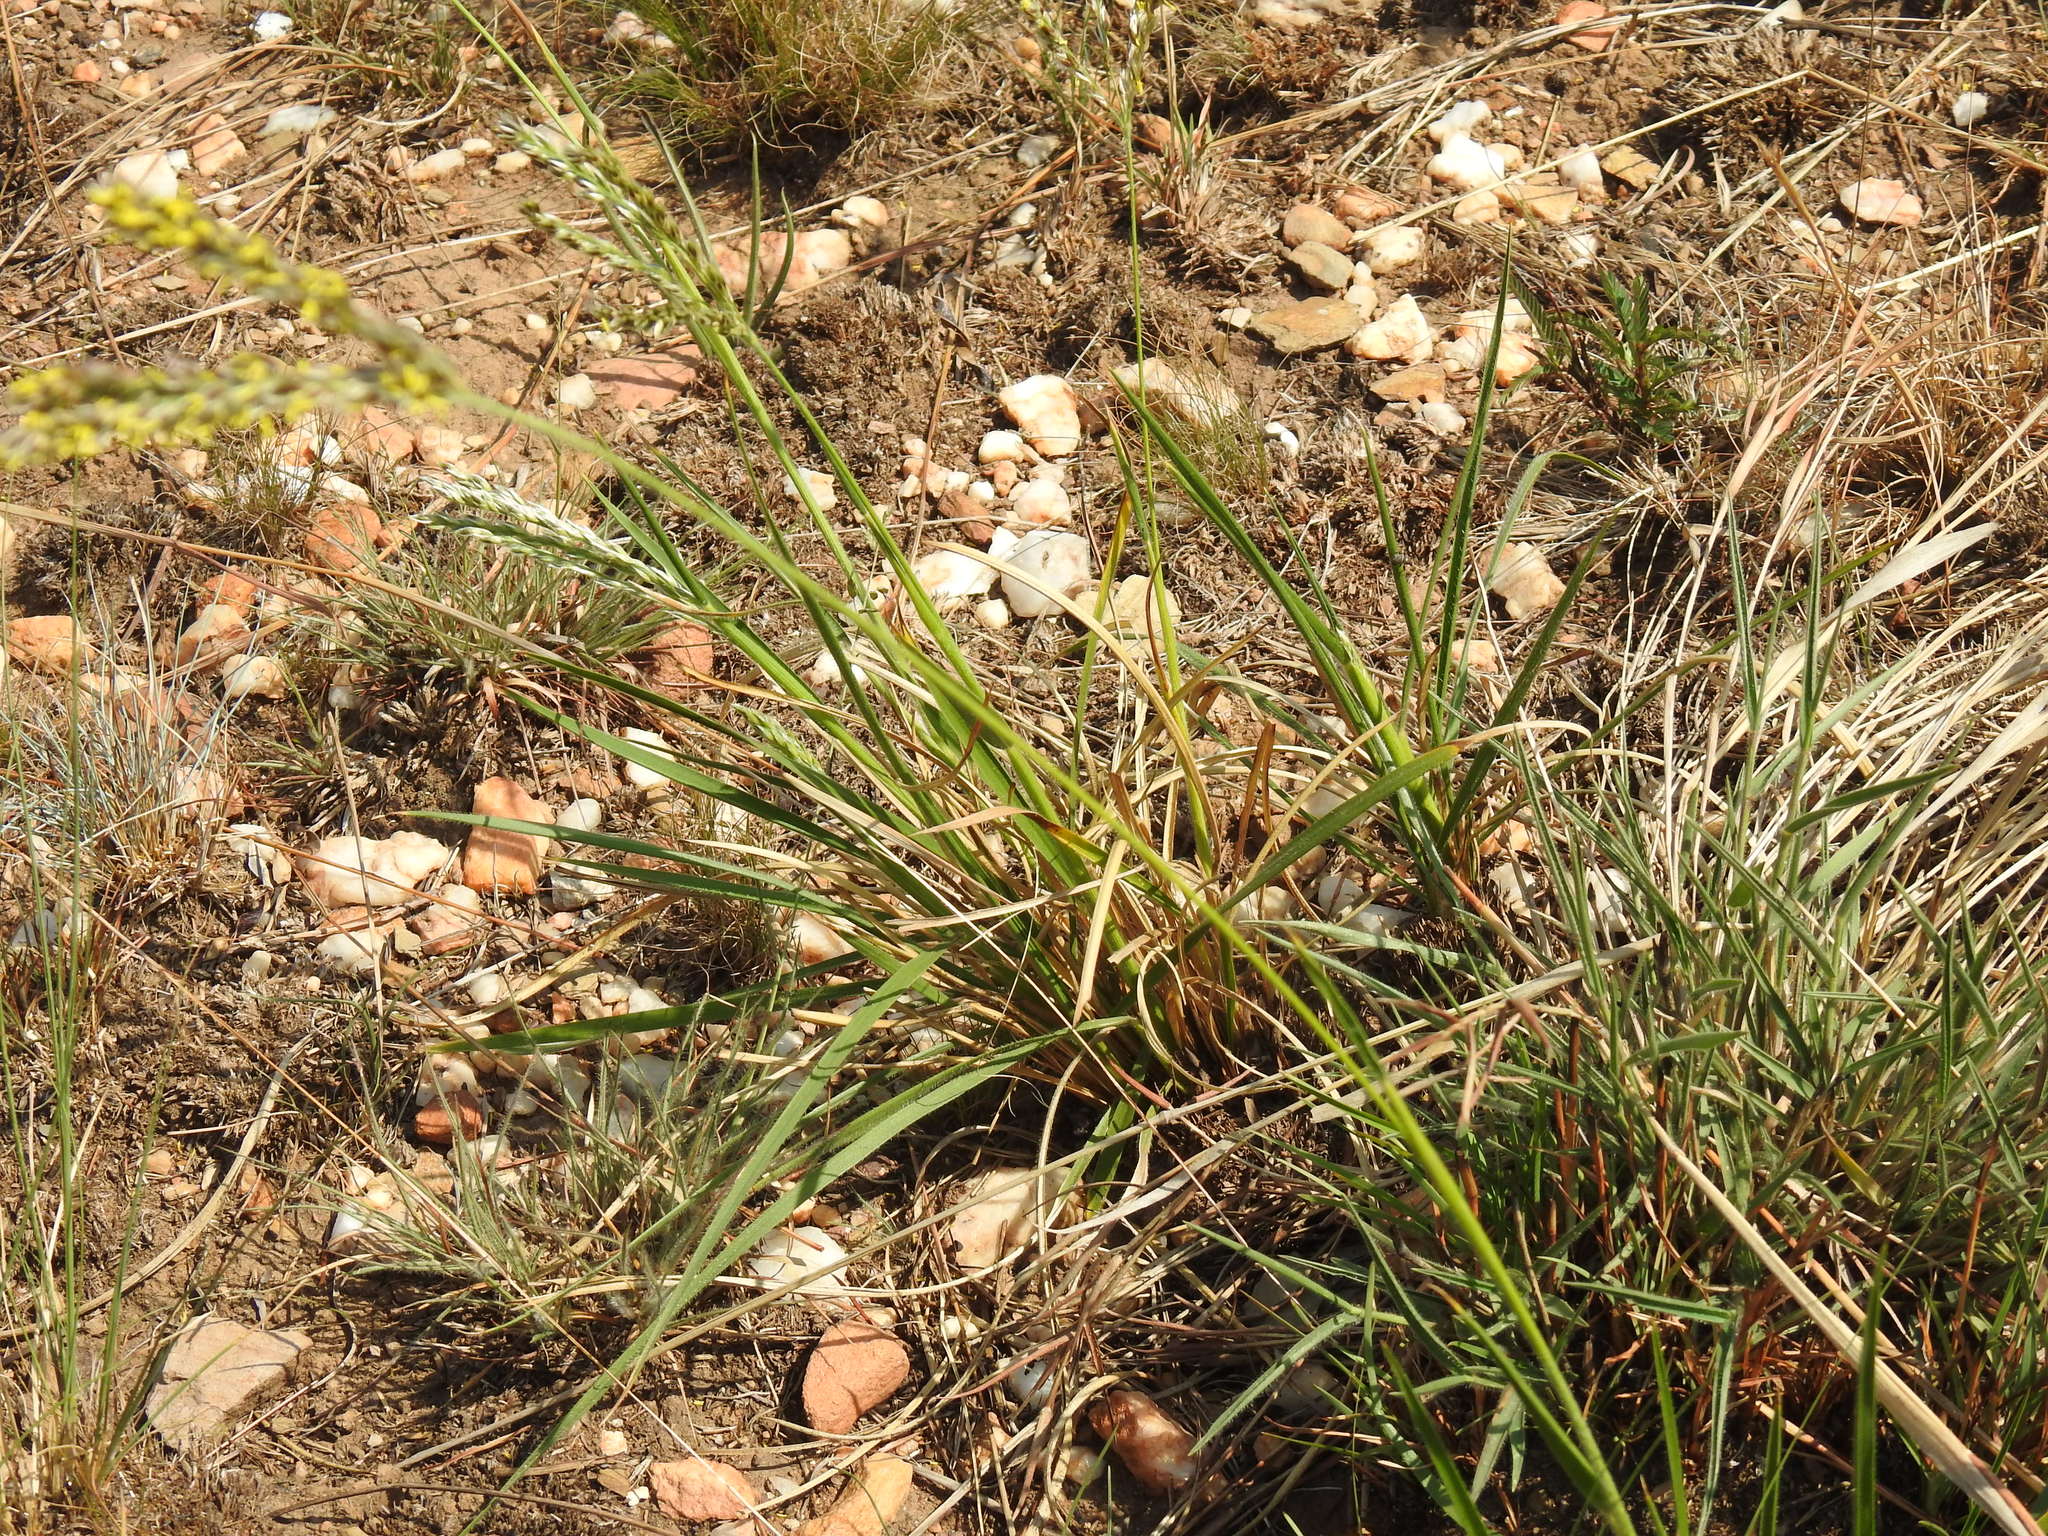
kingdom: Plantae
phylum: Tracheophyta
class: Liliopsida
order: Poales
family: Poaceae
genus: Alloteropsis
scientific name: Alloteropsis semialata
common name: Cockatoo grass
